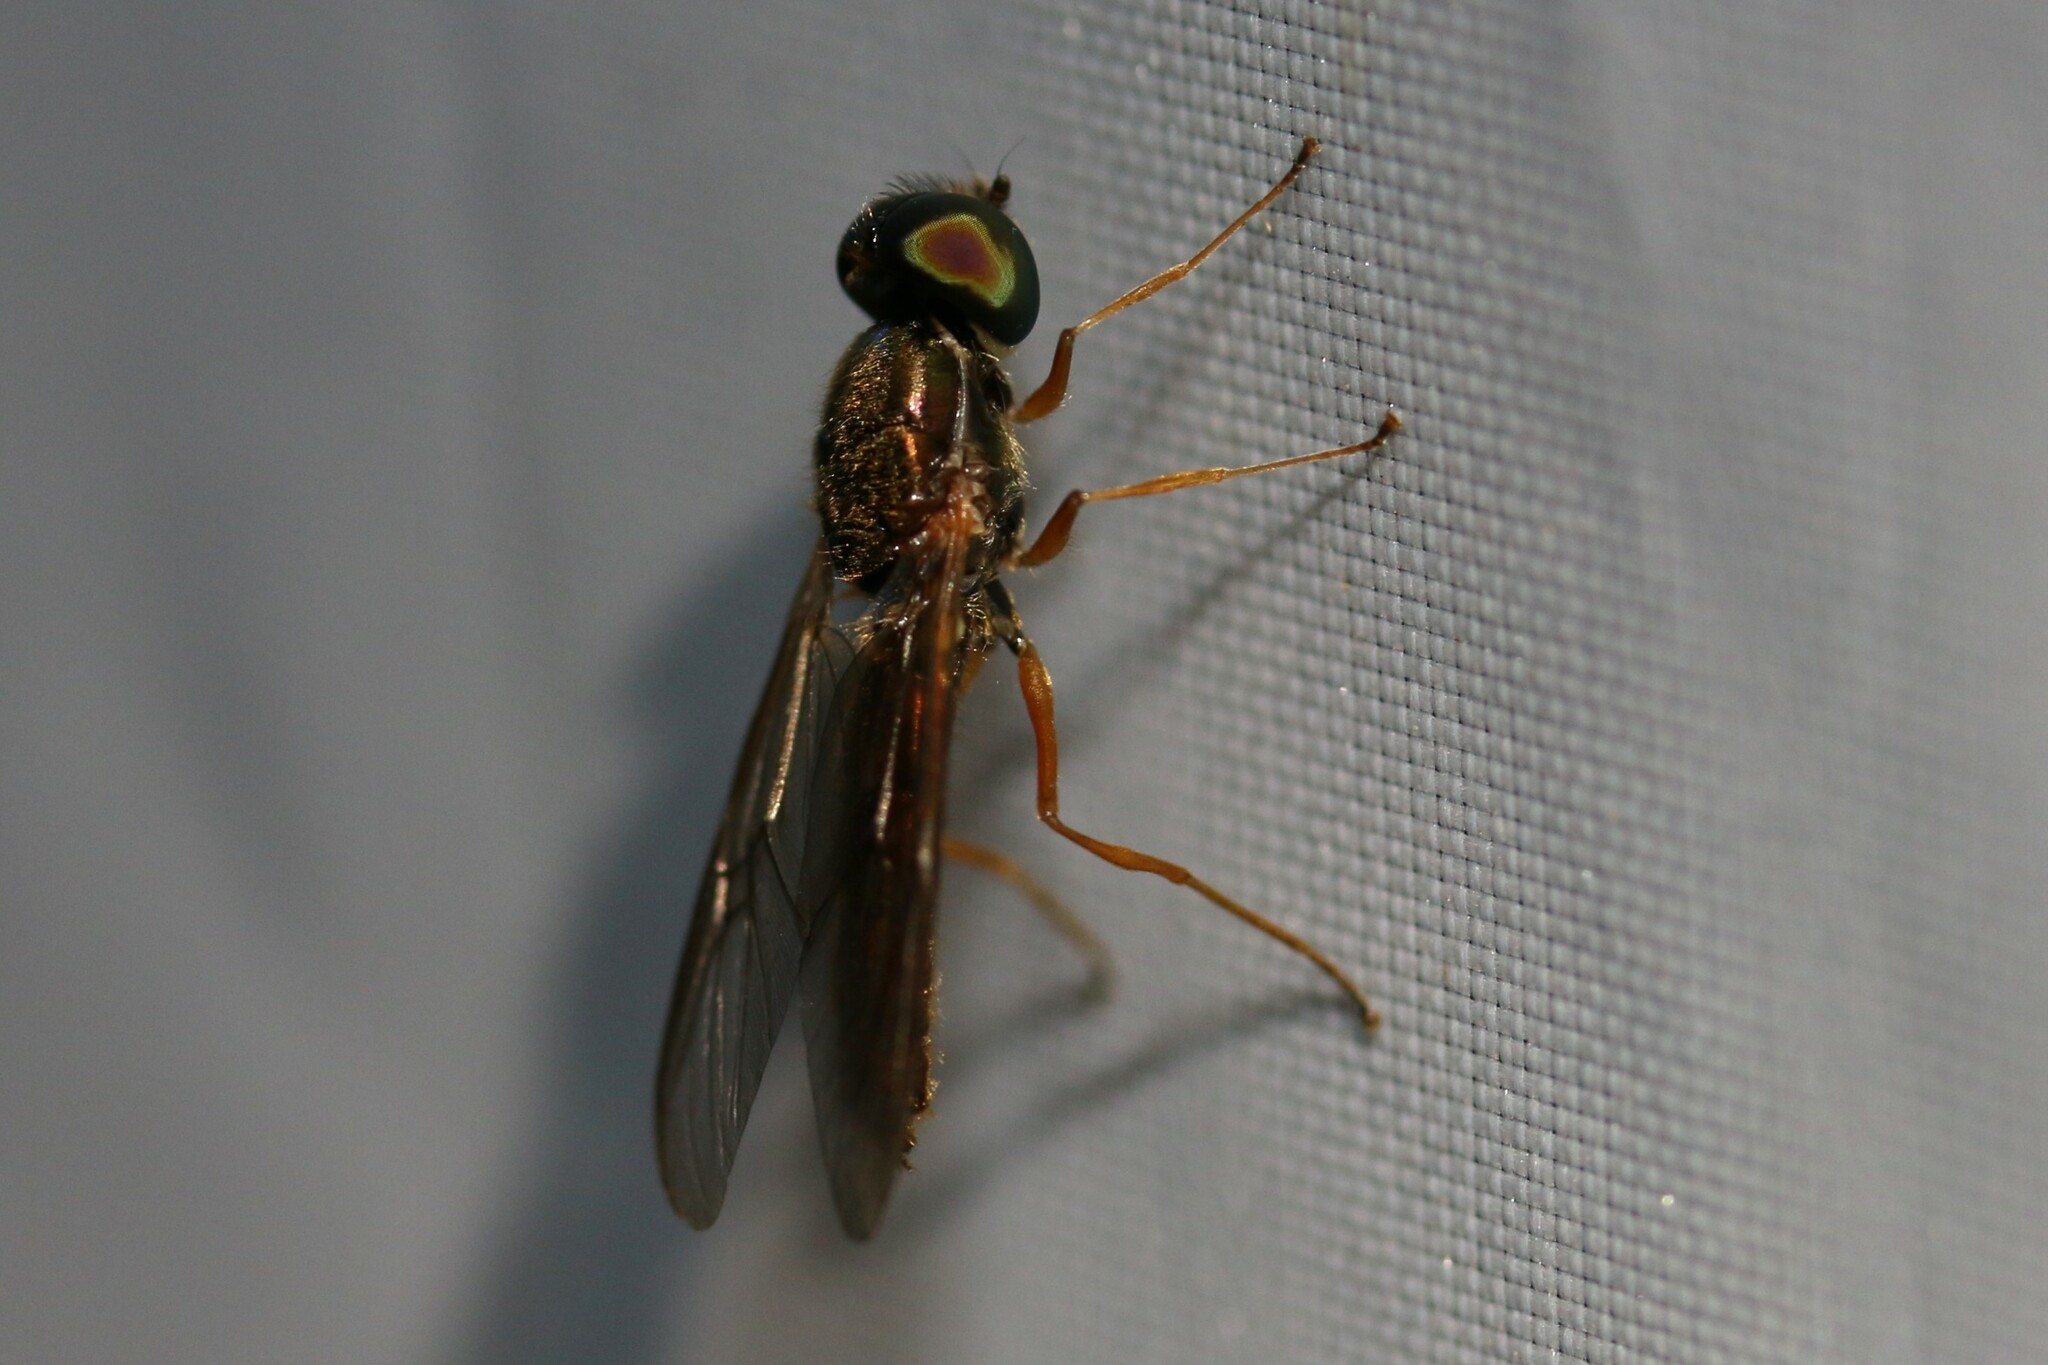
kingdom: Animalia
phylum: Arthropoda
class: Insecta
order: Diptera
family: Stratiomyidae
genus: Sargus
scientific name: Sargus bipunctatus
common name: Twin-spot centurion
